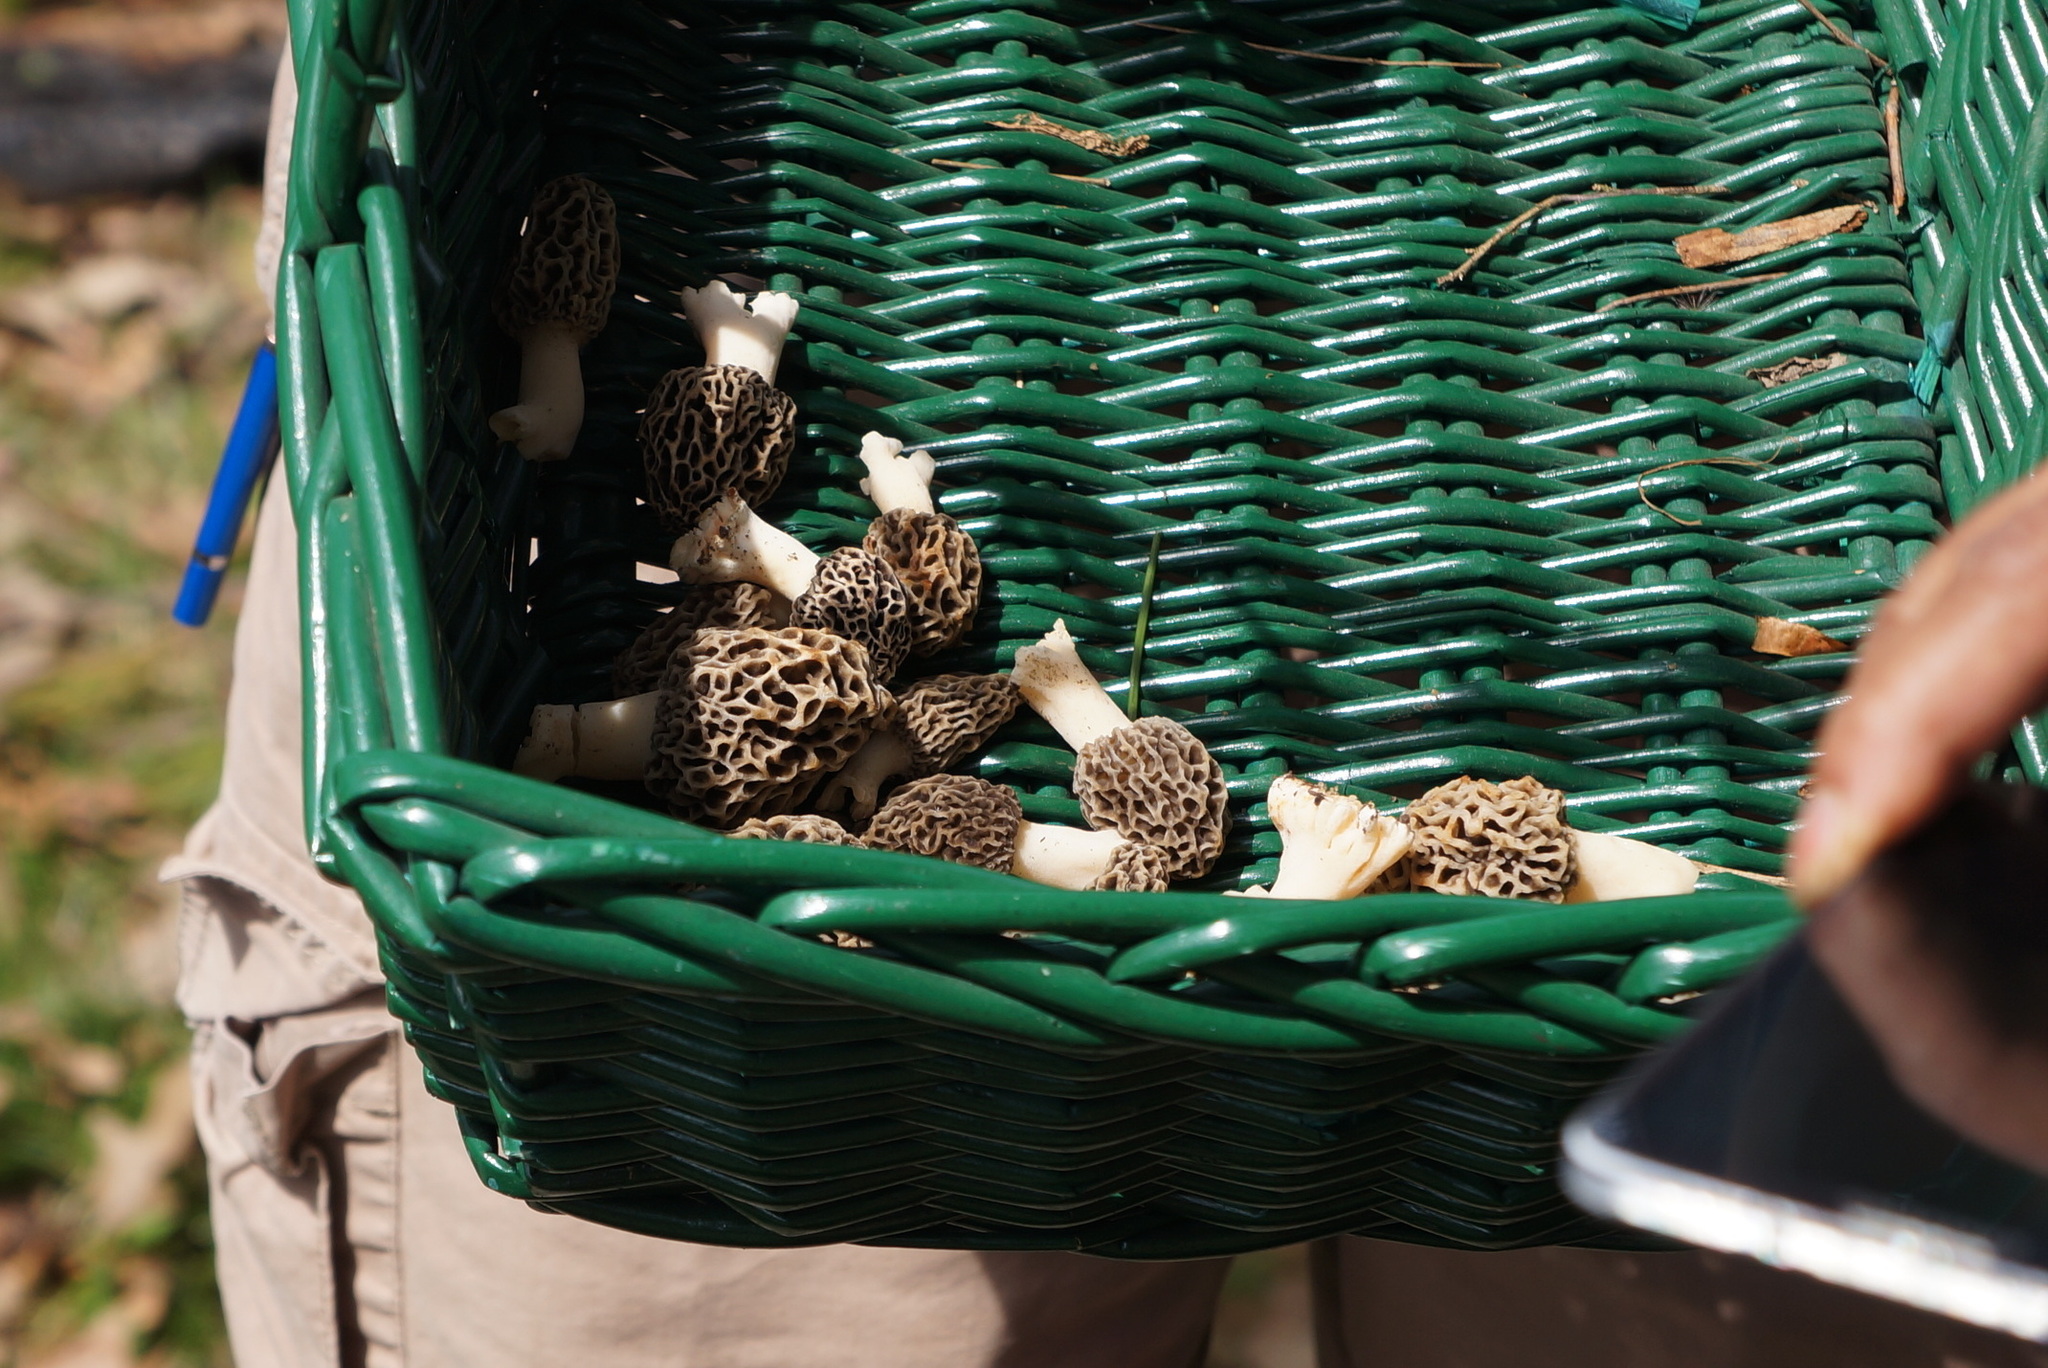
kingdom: Fungi
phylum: Ascomycota
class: Pezizomycetes
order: Pezizales
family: Morchellaceae
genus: Morchella
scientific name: Morchella americana
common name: White morel
